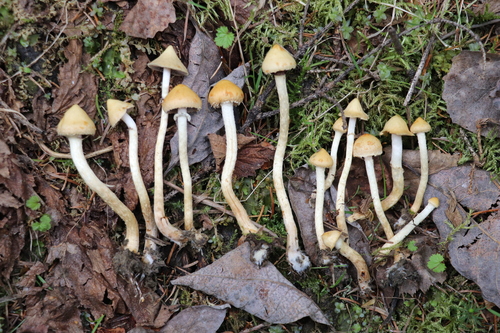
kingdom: Fungi
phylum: Basidiomycota
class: Agaricomycetes
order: Agaricales
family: Strophariaceae
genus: Leratiomyces
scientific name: Leratiomyces magnivelaris
